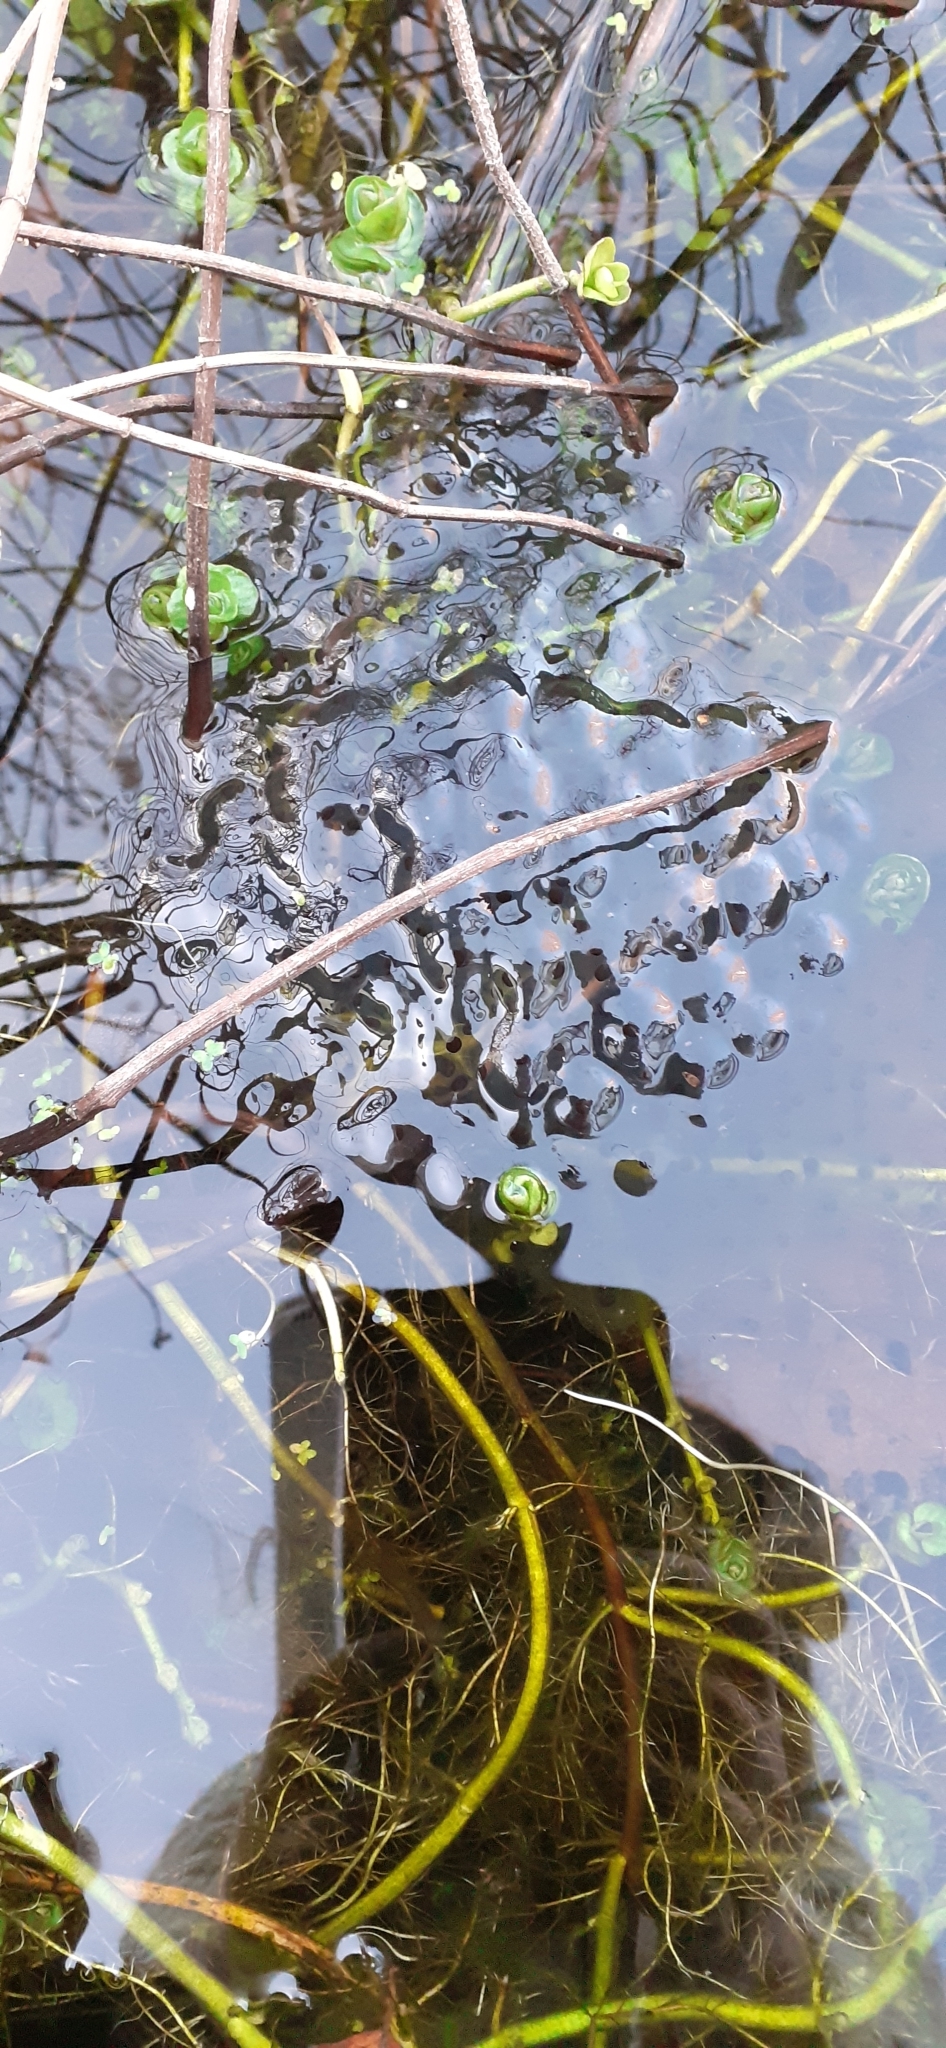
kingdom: Animalia
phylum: Chordata
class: Amphibia
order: Anura
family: Ranidae
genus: Rana
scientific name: Rana temporaria
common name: Common frog
